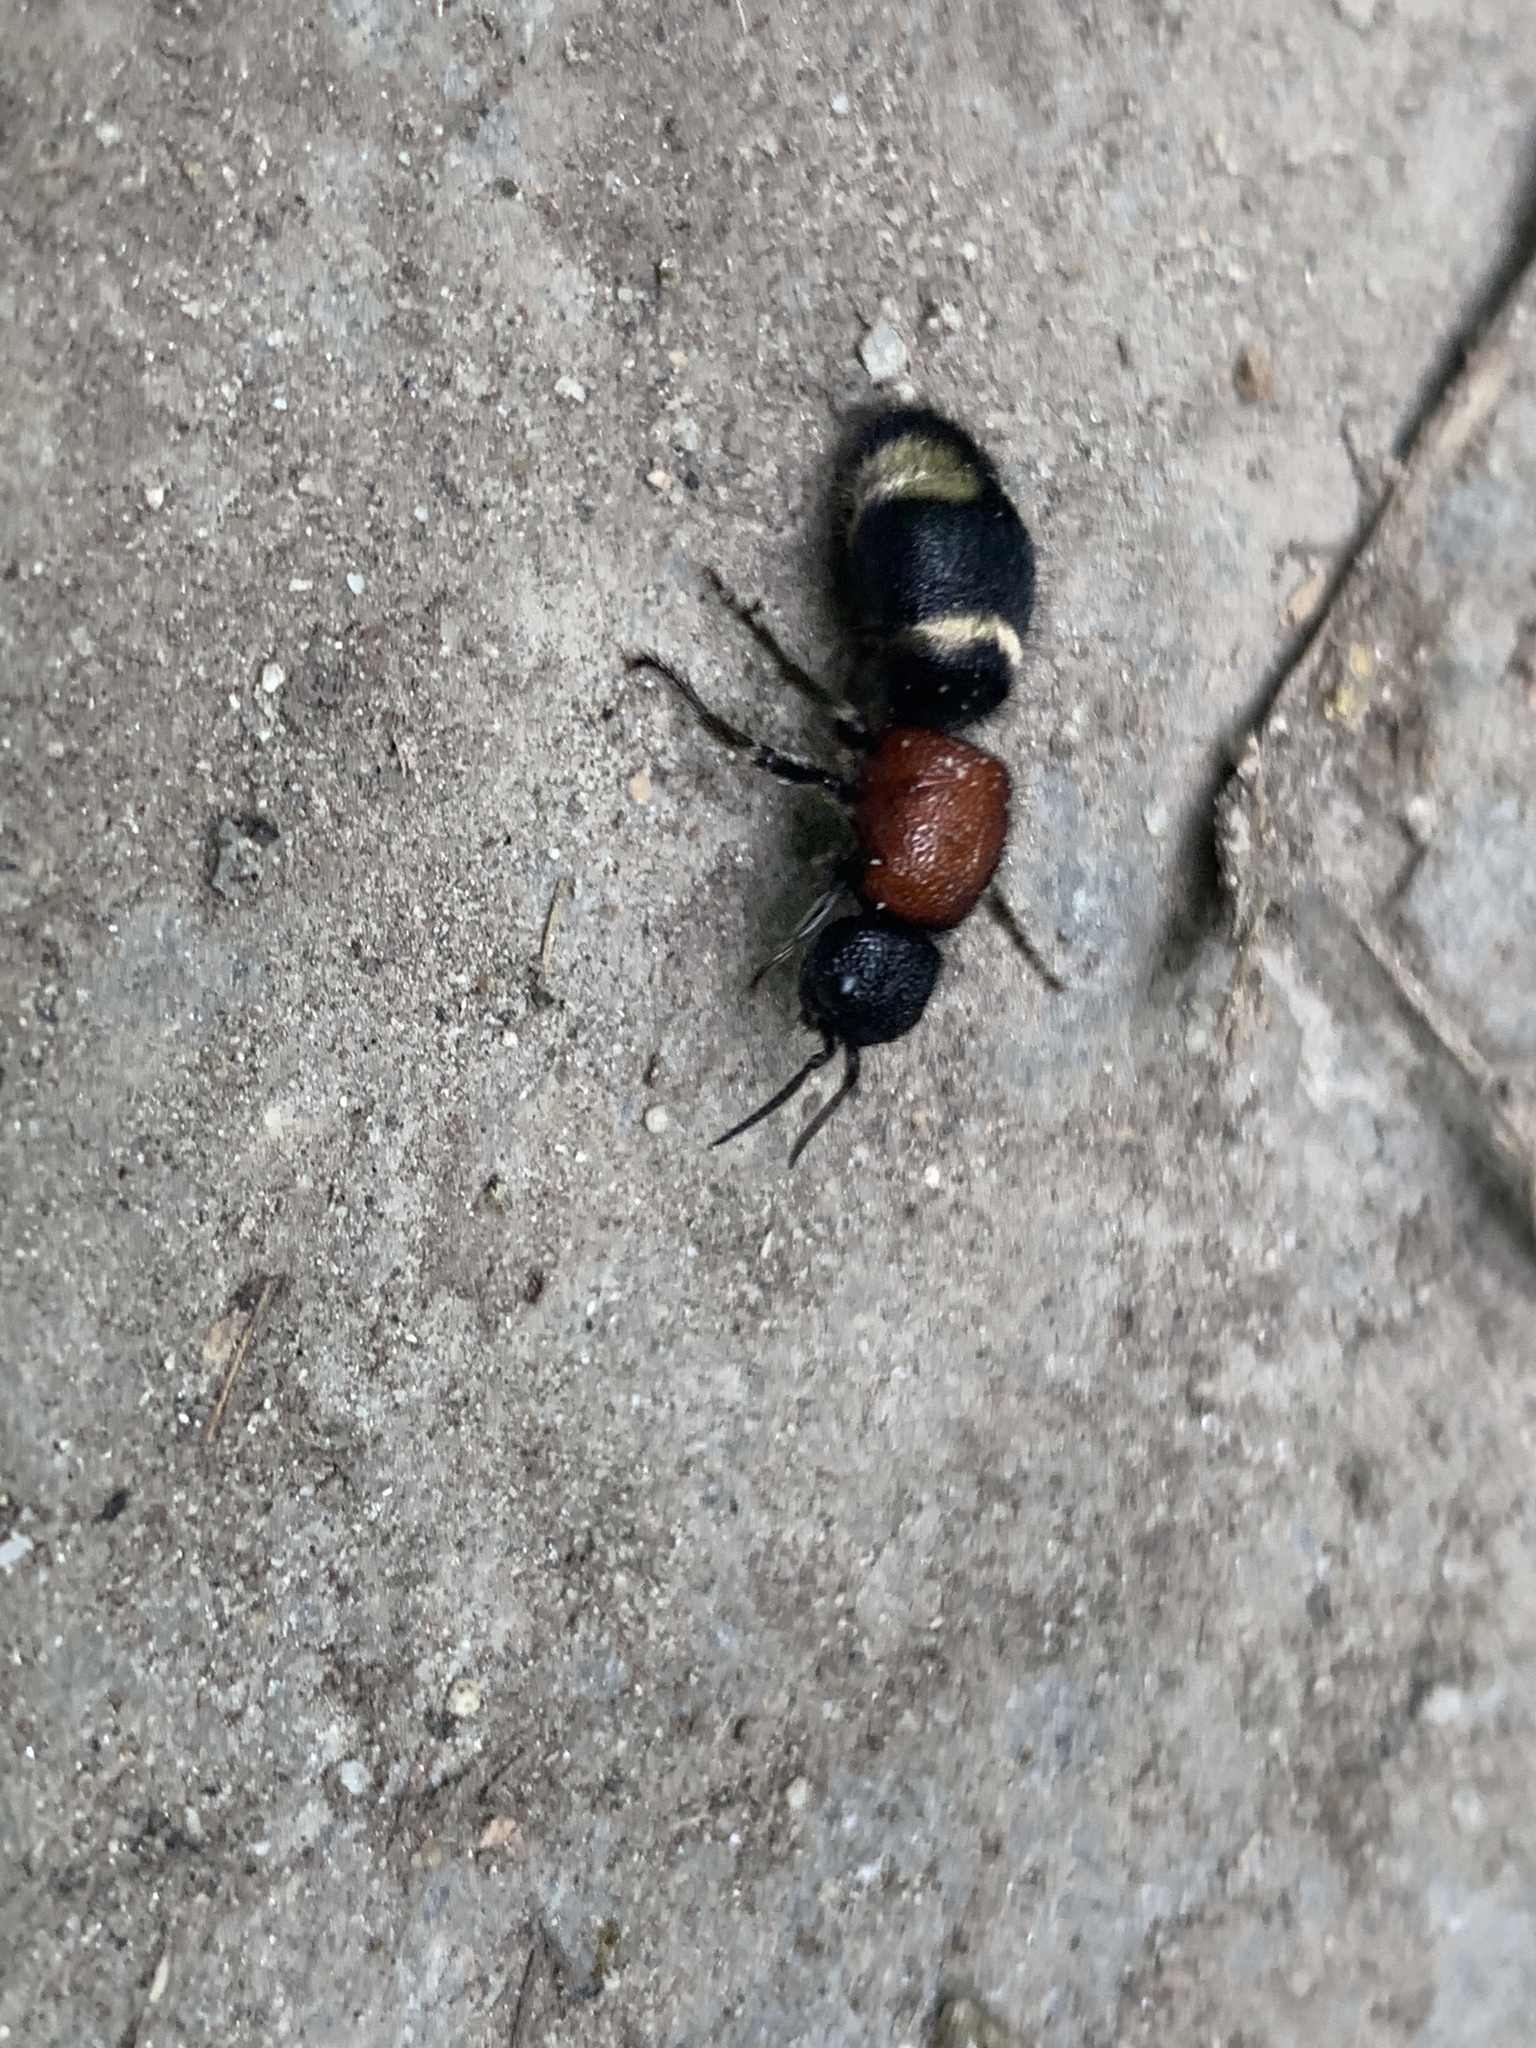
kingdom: Animalia
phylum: Arthropoda
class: Insecta
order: Hymenoptera
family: Mutillidae
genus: Mutilla
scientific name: Mutilla europaea
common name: Large velvet ant
